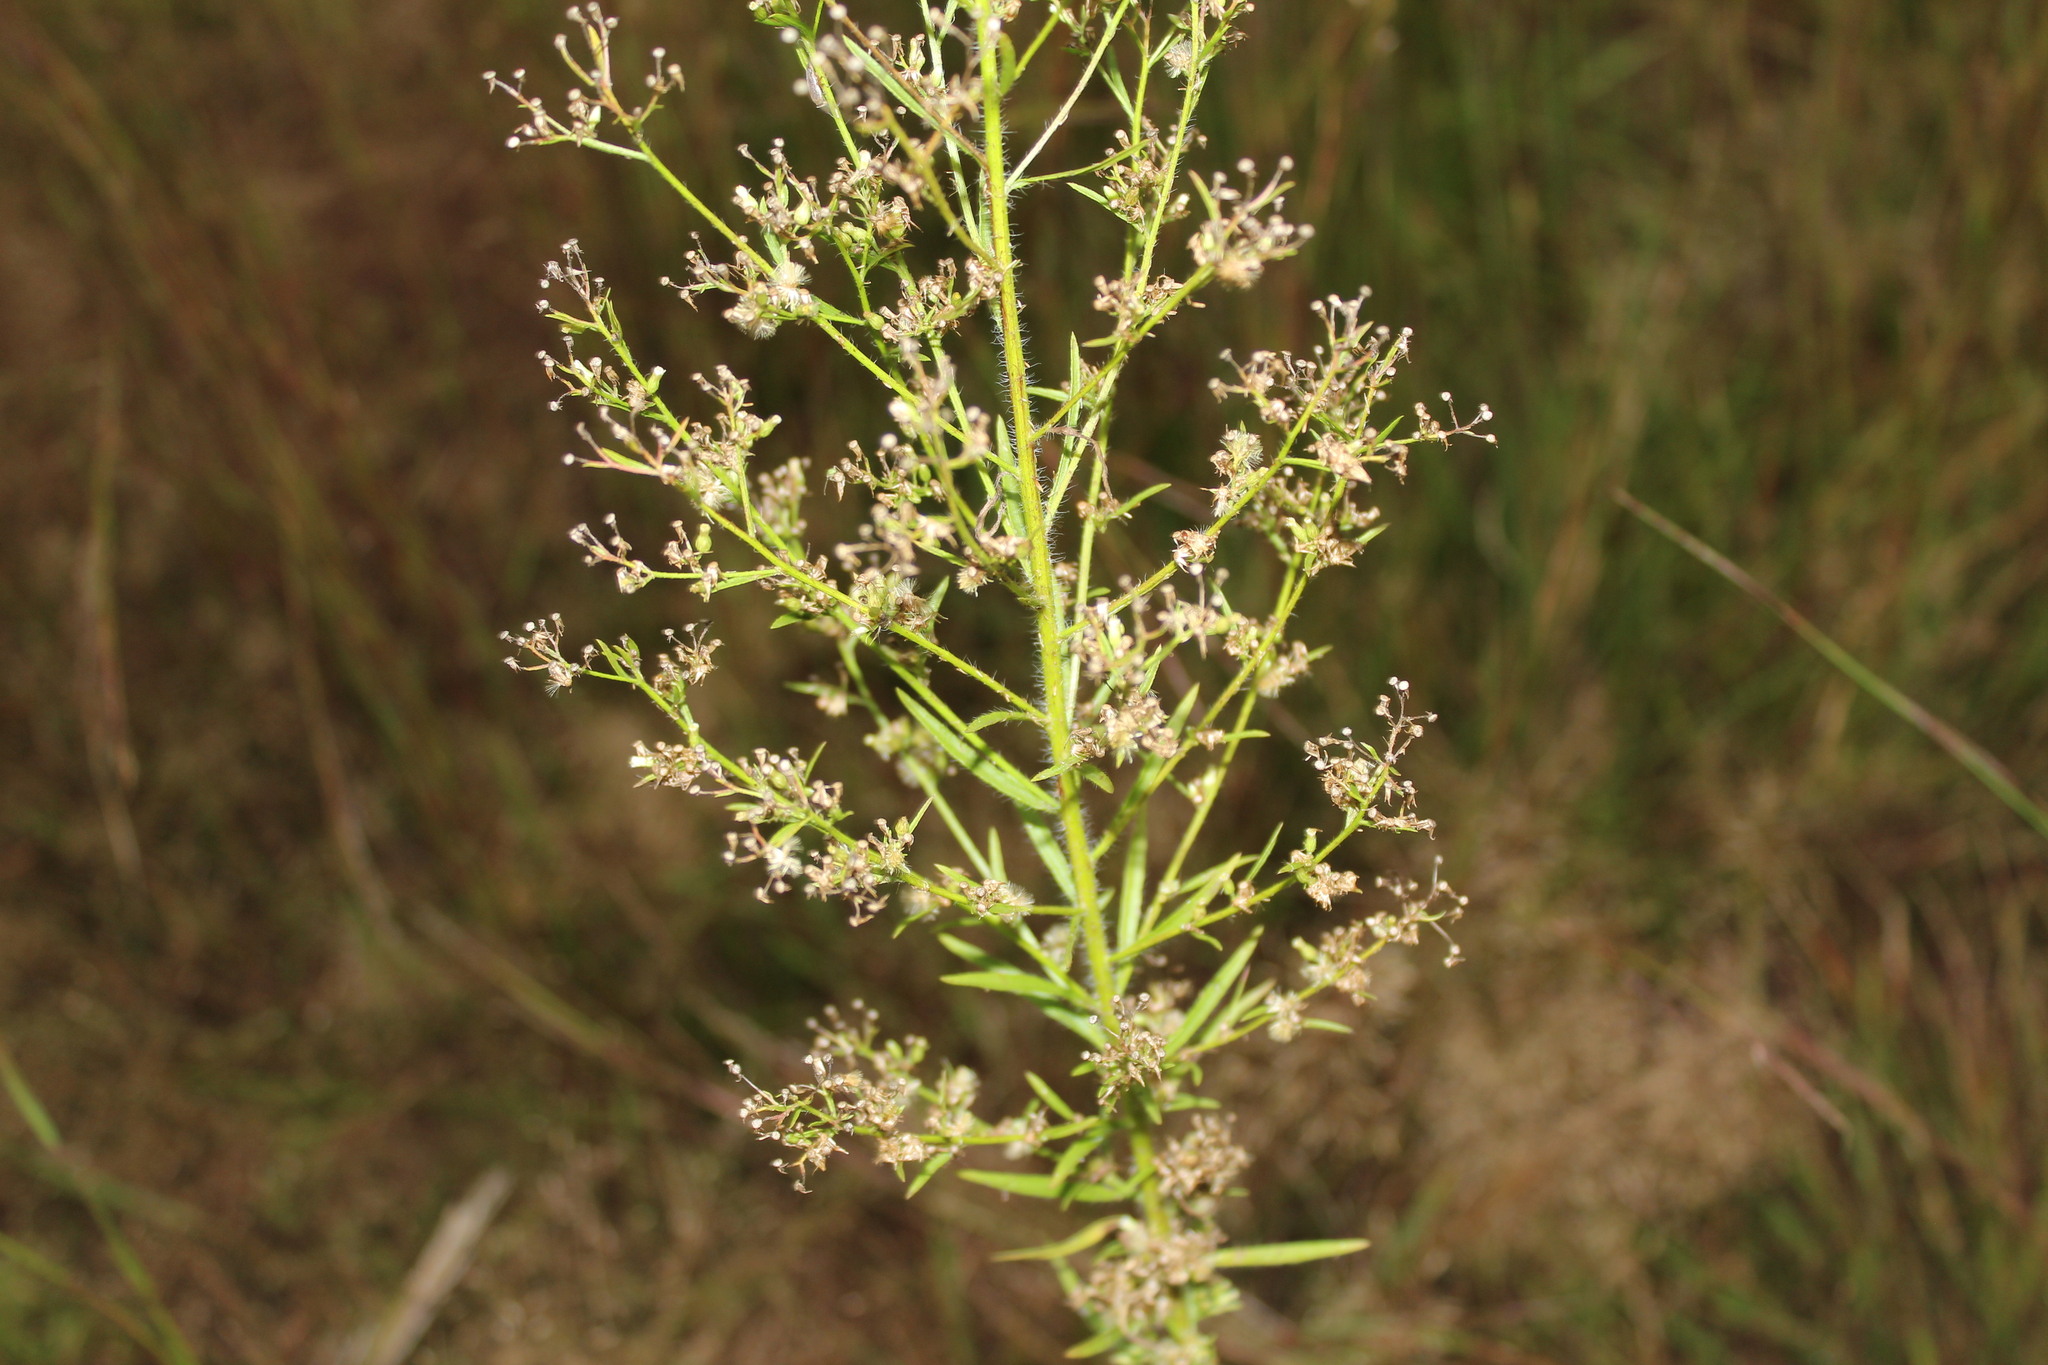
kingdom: Plantae
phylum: Tracheophyta
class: Magnoliopsida
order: Asterales
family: Asteraceae
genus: Erigeron
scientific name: Erigeron canadensis
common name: Canadian fleabane
